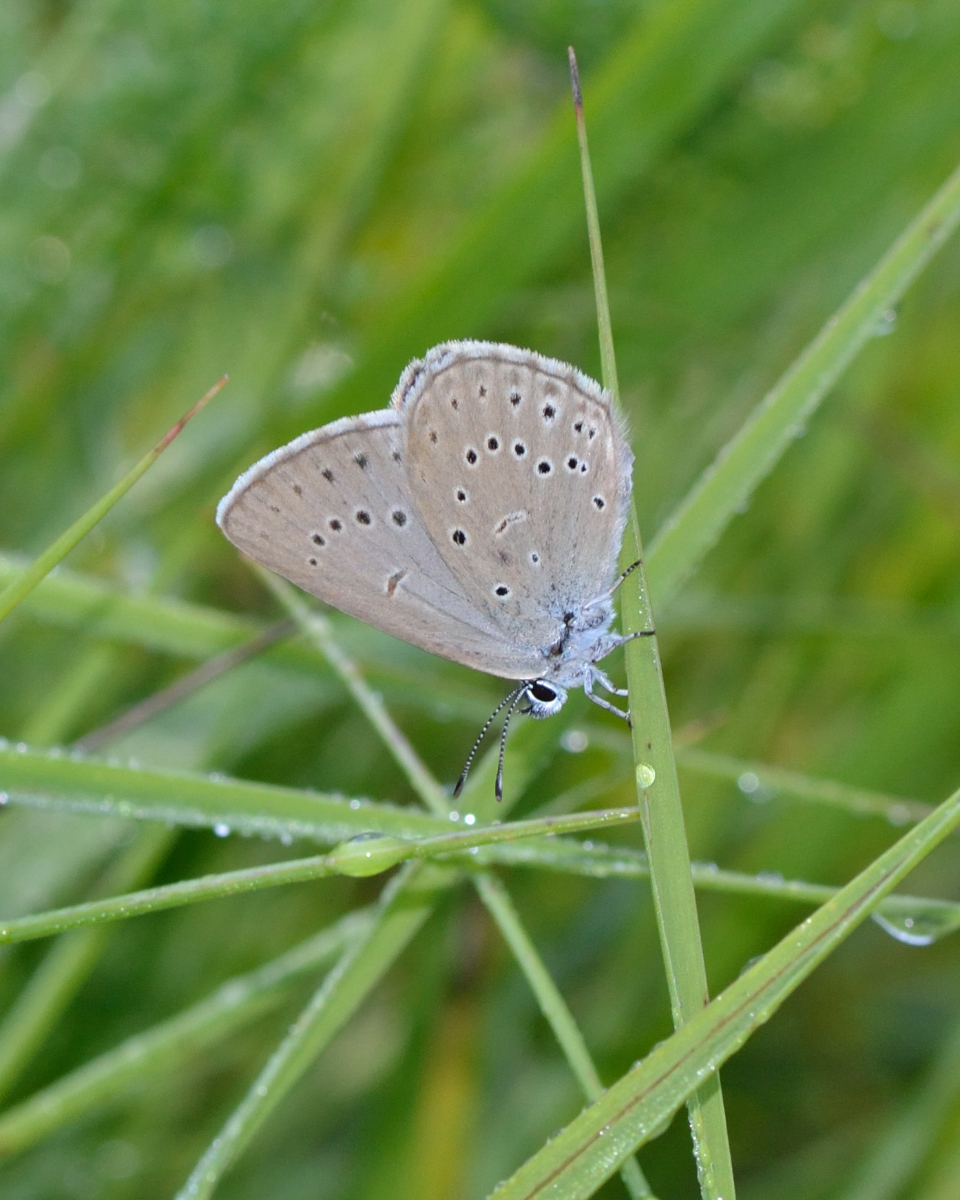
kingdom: Animalia
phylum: Arthropoda
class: Insecta
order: Lepidoptera
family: Lycaenidae
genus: Phengaris
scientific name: Phengaris teleius
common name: Scarce large blue
